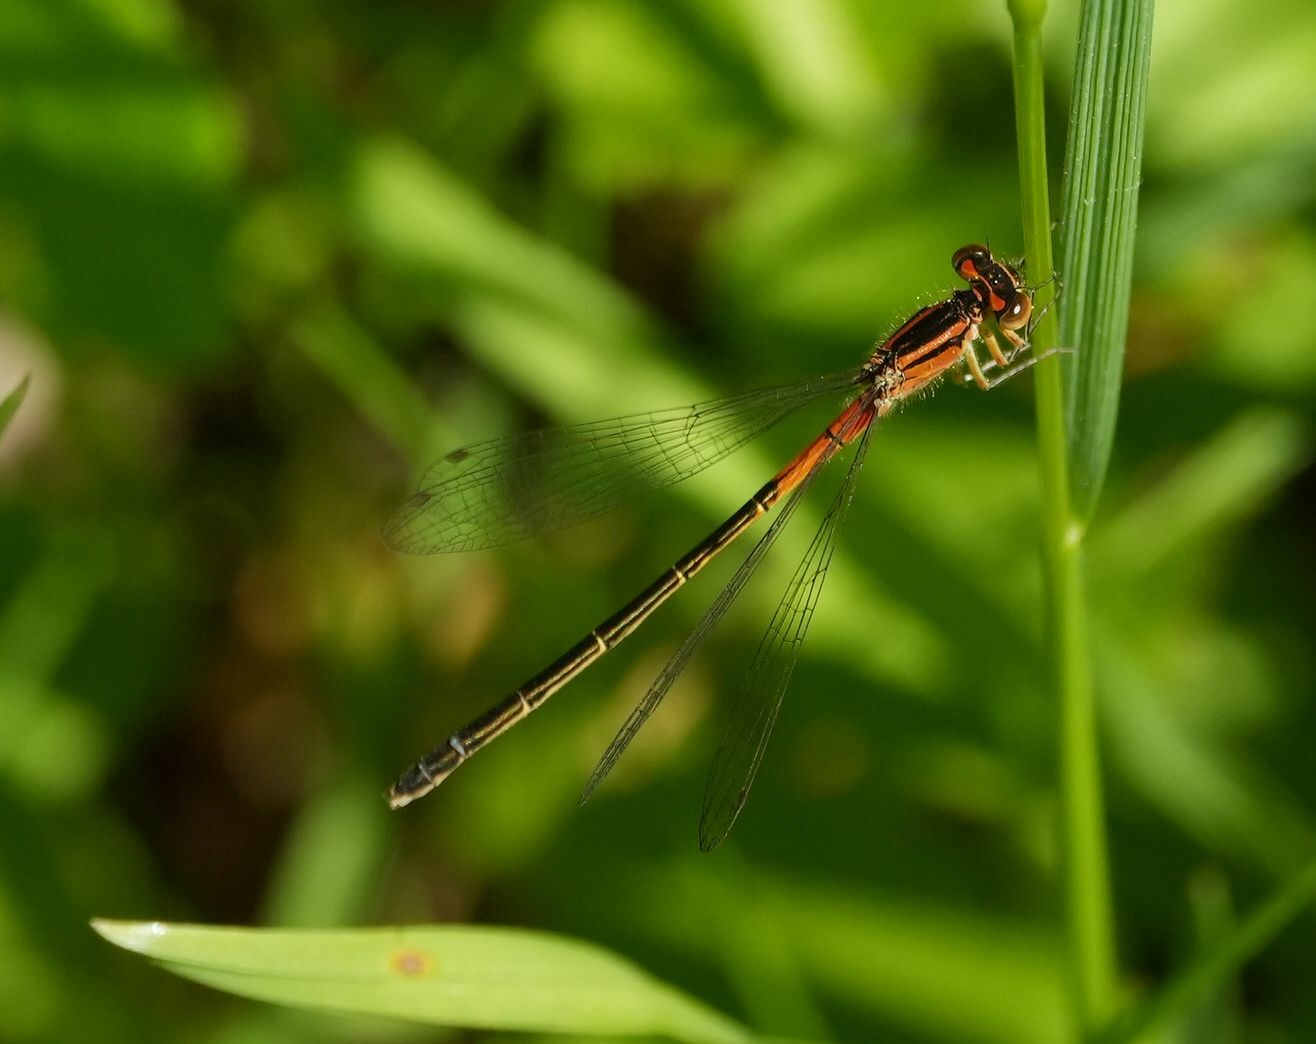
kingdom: Animalia
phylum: Arthropoda
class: Insecta
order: Odonata
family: Coenagrionidae
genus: Ischnura
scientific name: Ischnura verticalis
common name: Eastern forktail
